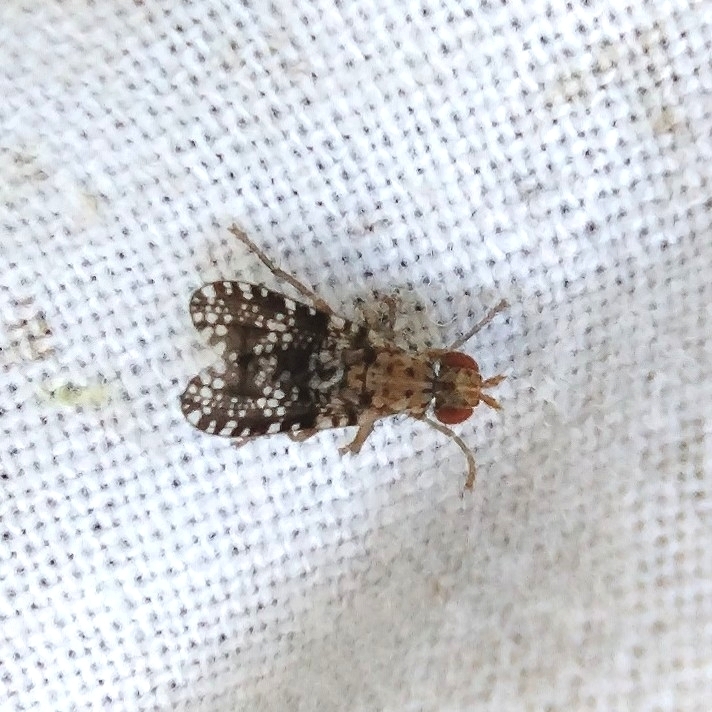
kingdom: Animalia
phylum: Arthropoda
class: Insecta
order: Diptera
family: Sciomyzidae
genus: Trypetoptera
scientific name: Trypetoptera punctulata
